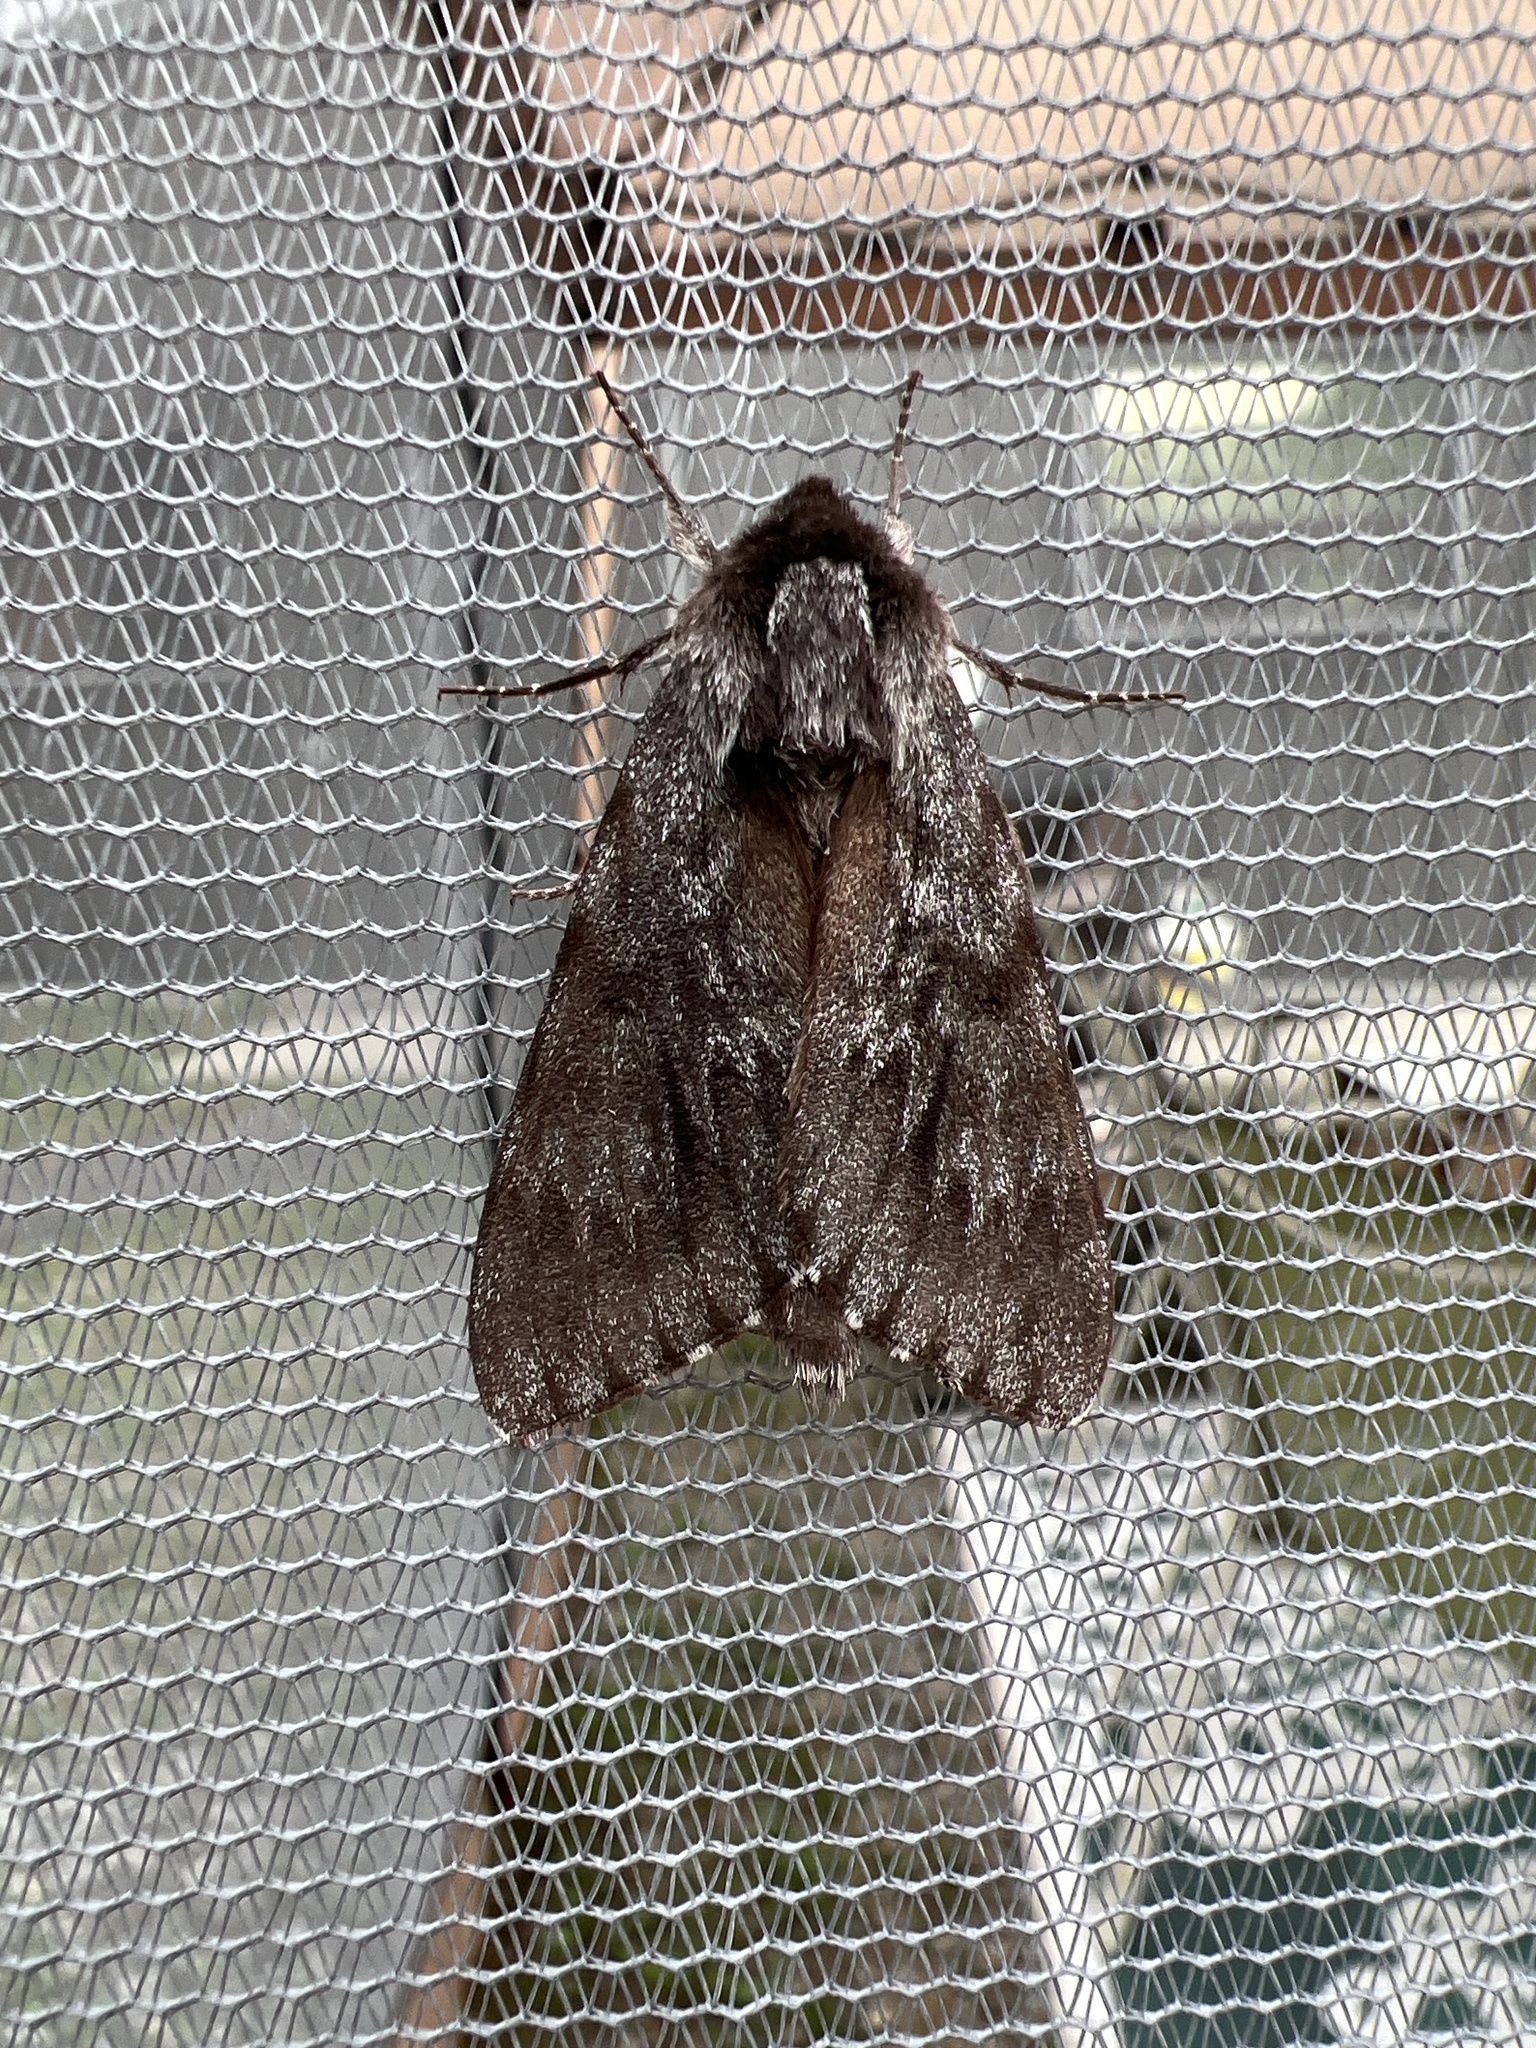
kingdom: Animalia
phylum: Arthropoda
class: Insecta
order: Lepidoptera
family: Sphingidae
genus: Lapara
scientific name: Lapara bombycoides
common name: Northern pine sphinx
